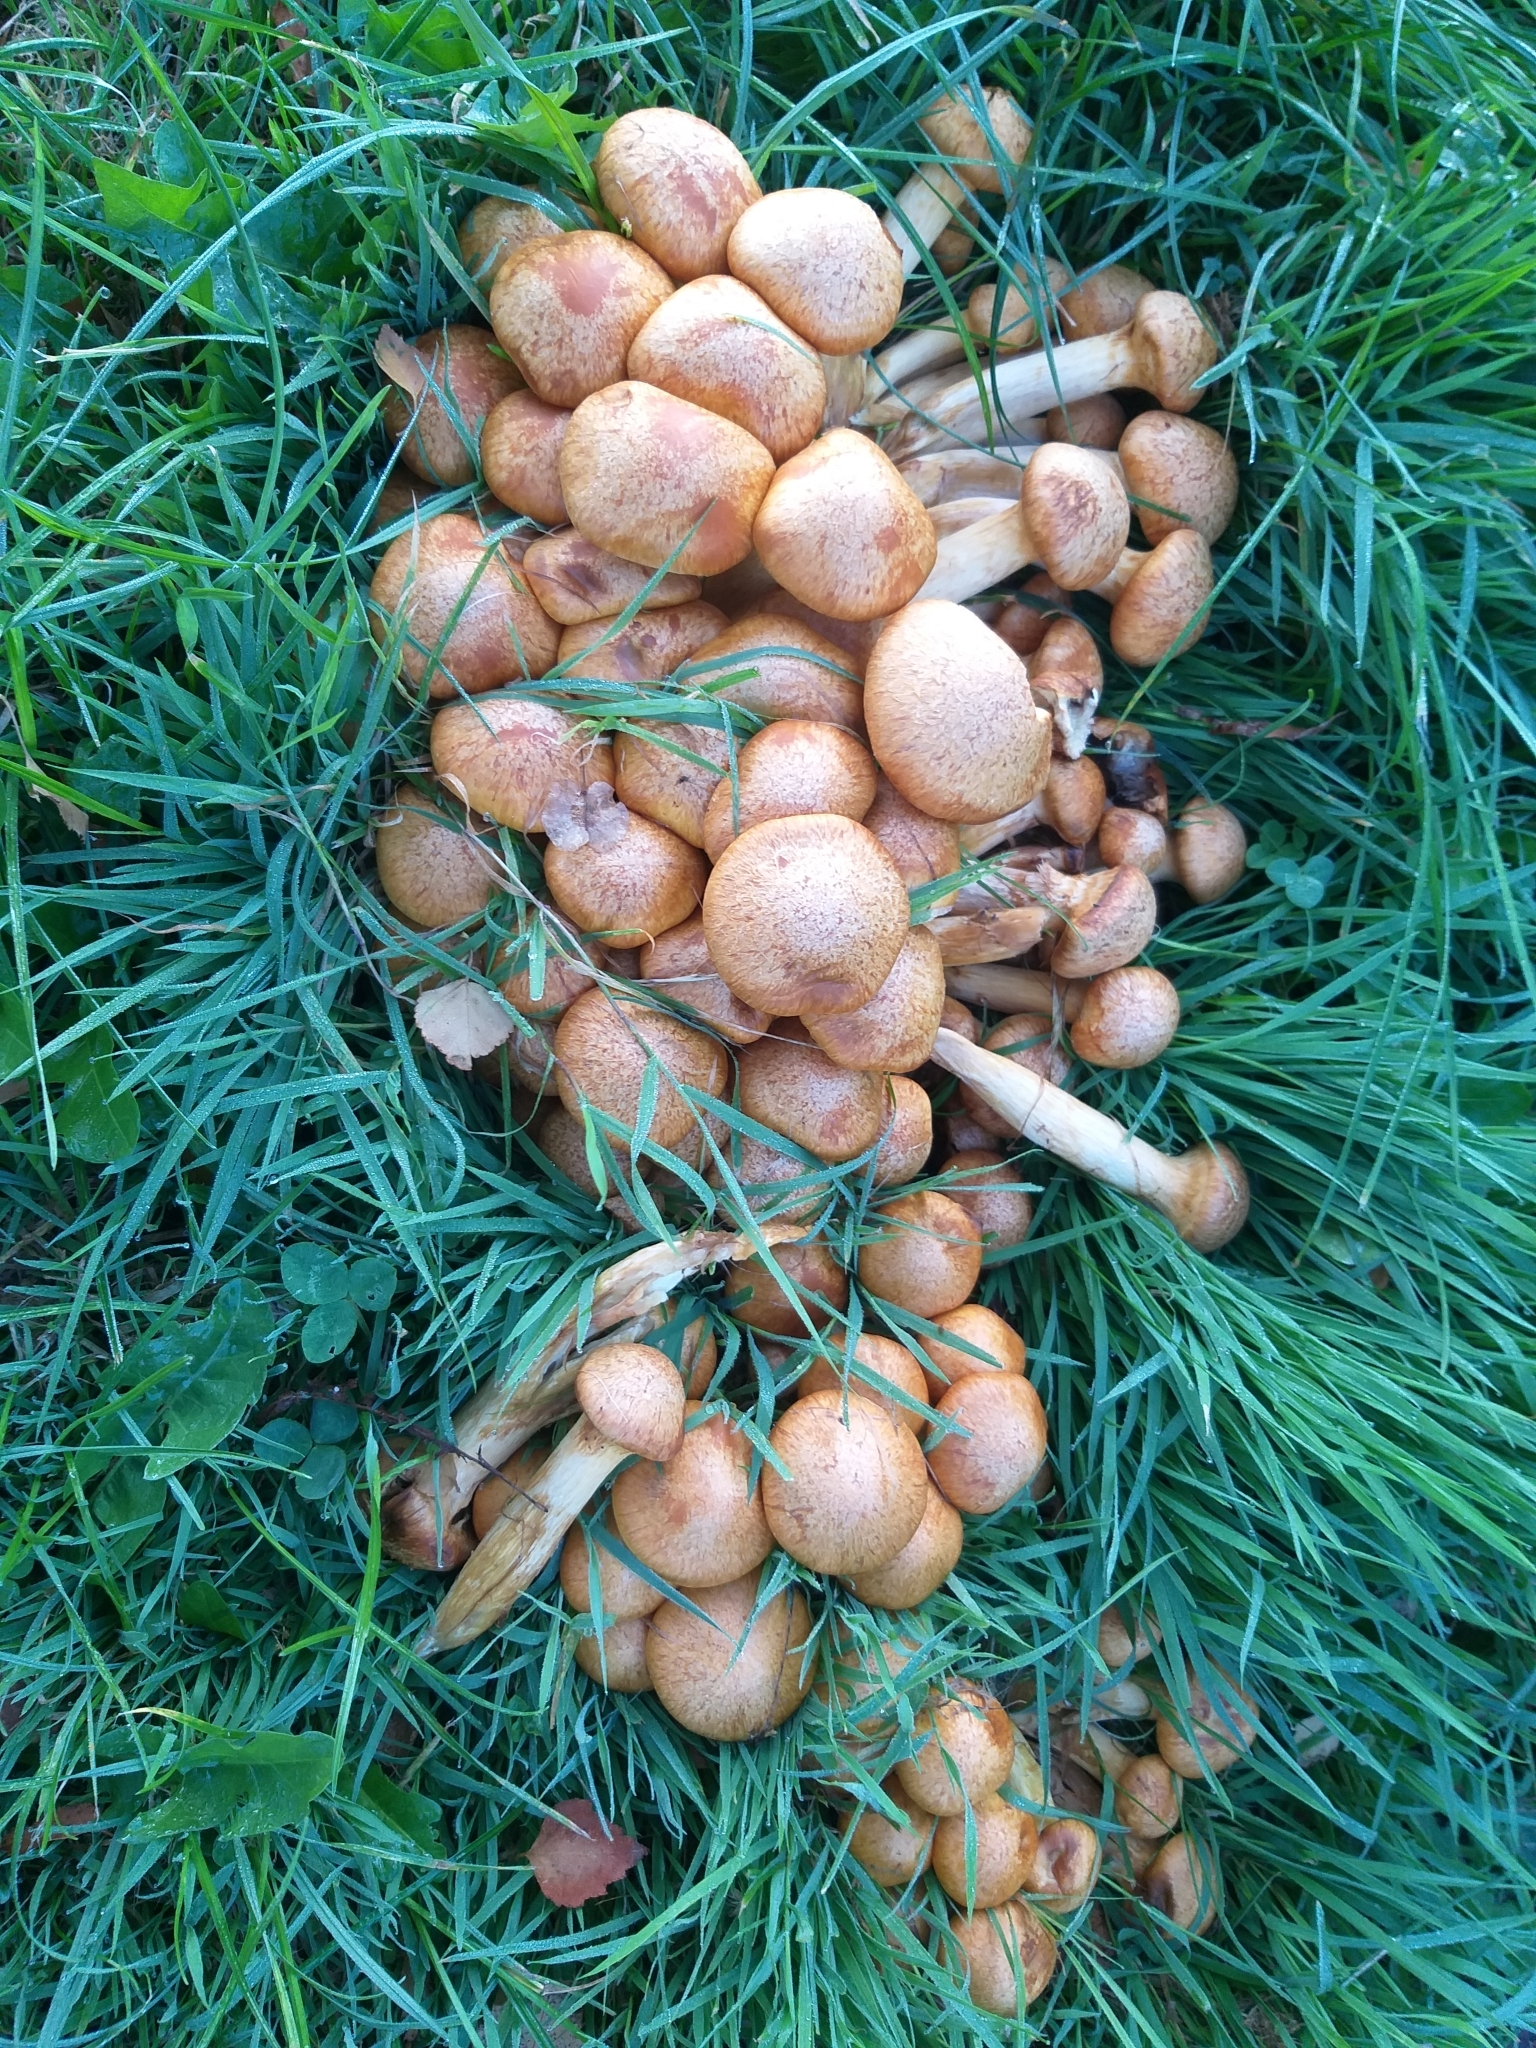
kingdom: Fungi
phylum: Basidiomycota
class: Agaricomycetes
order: Agaricales
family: Hymenogastraceae
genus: Gymnopilus
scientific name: Gymnopilus junonius
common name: Spectacular rustgill
